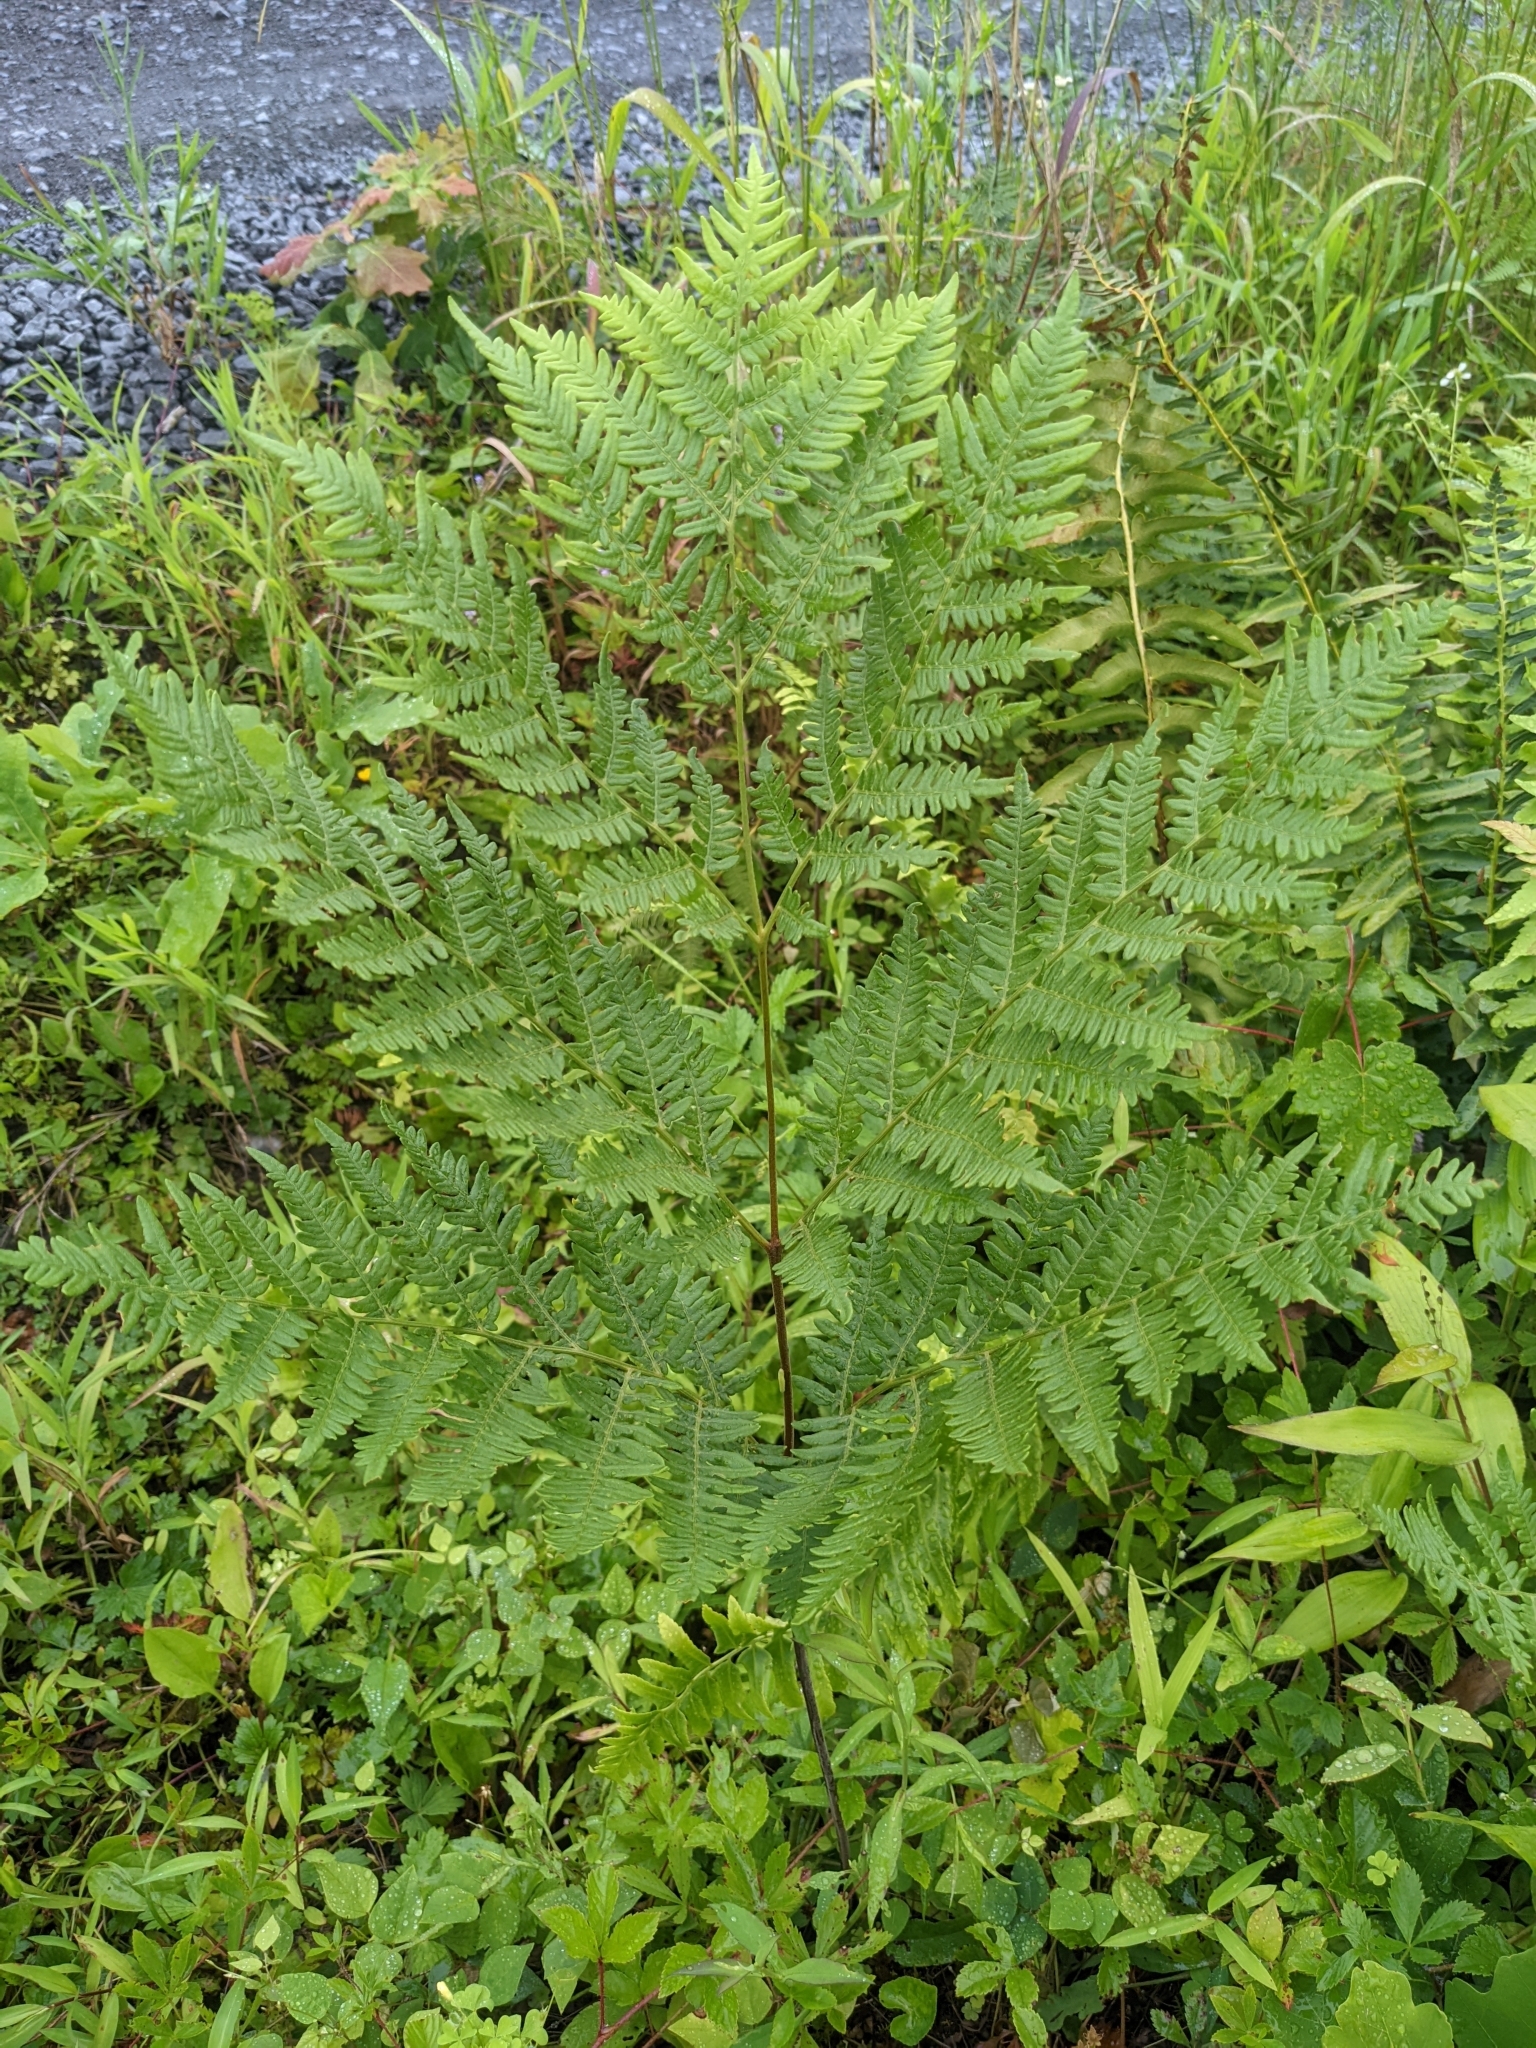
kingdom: Plantae
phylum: Tracheophyta
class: Polypodiopsida
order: Polypodiales
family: Dennstaedtiaceae
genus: Pteridium
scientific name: Pteridium aquilinum
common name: Bracken
